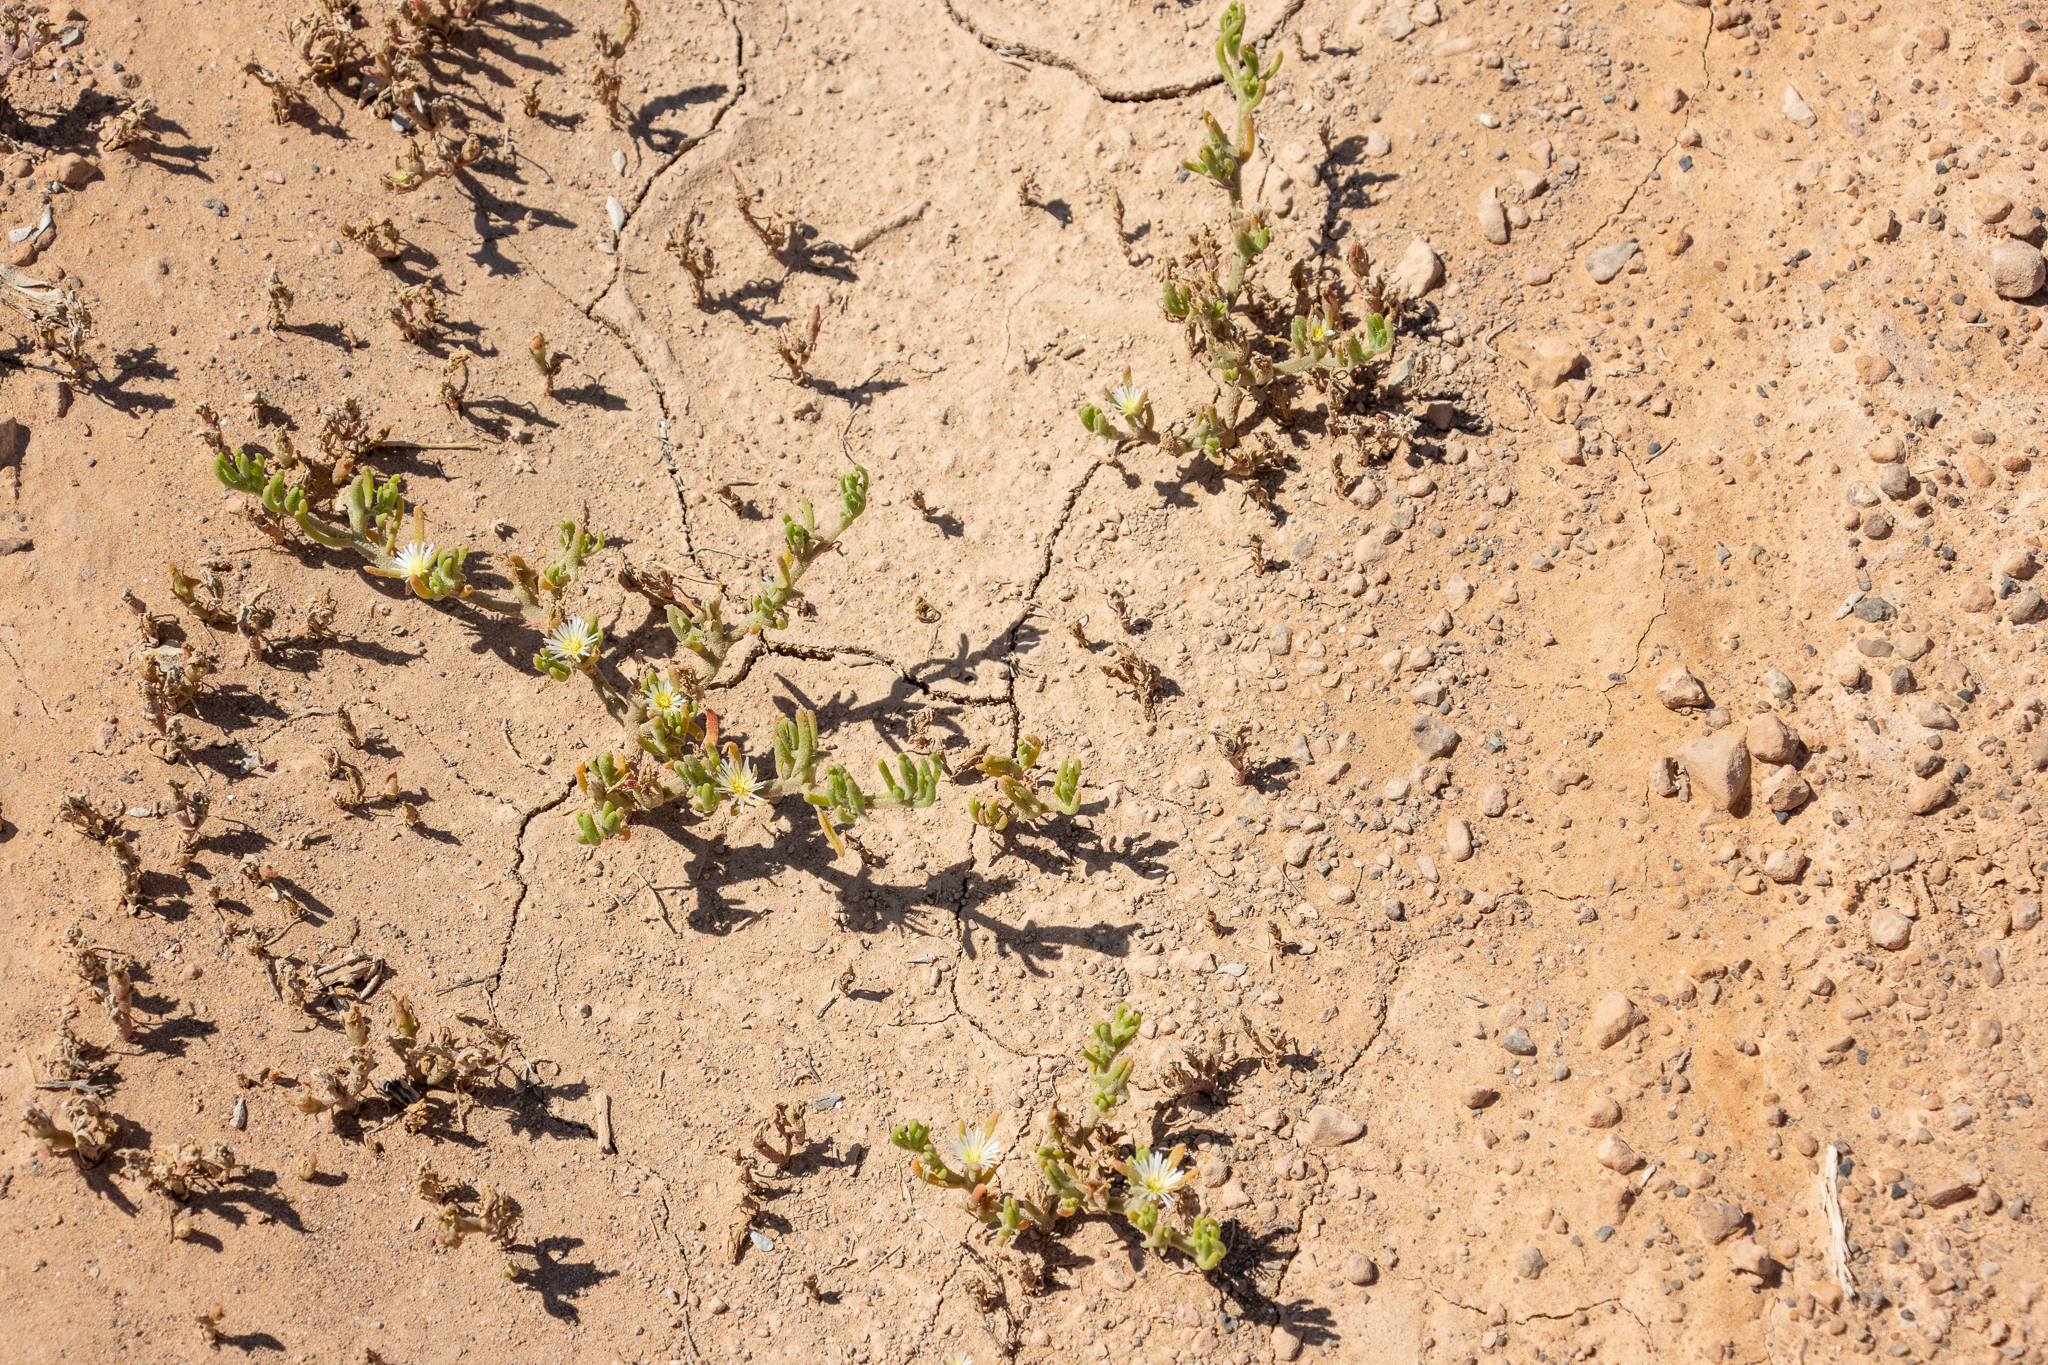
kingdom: Plantae
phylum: Tracheophyta
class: Magnoliopsida
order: Caryophyllales
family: Aizoaceae
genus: Mesembryanthemum
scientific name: Mesembryanthemum nodiflorum
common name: Slenderleaf iceplant
